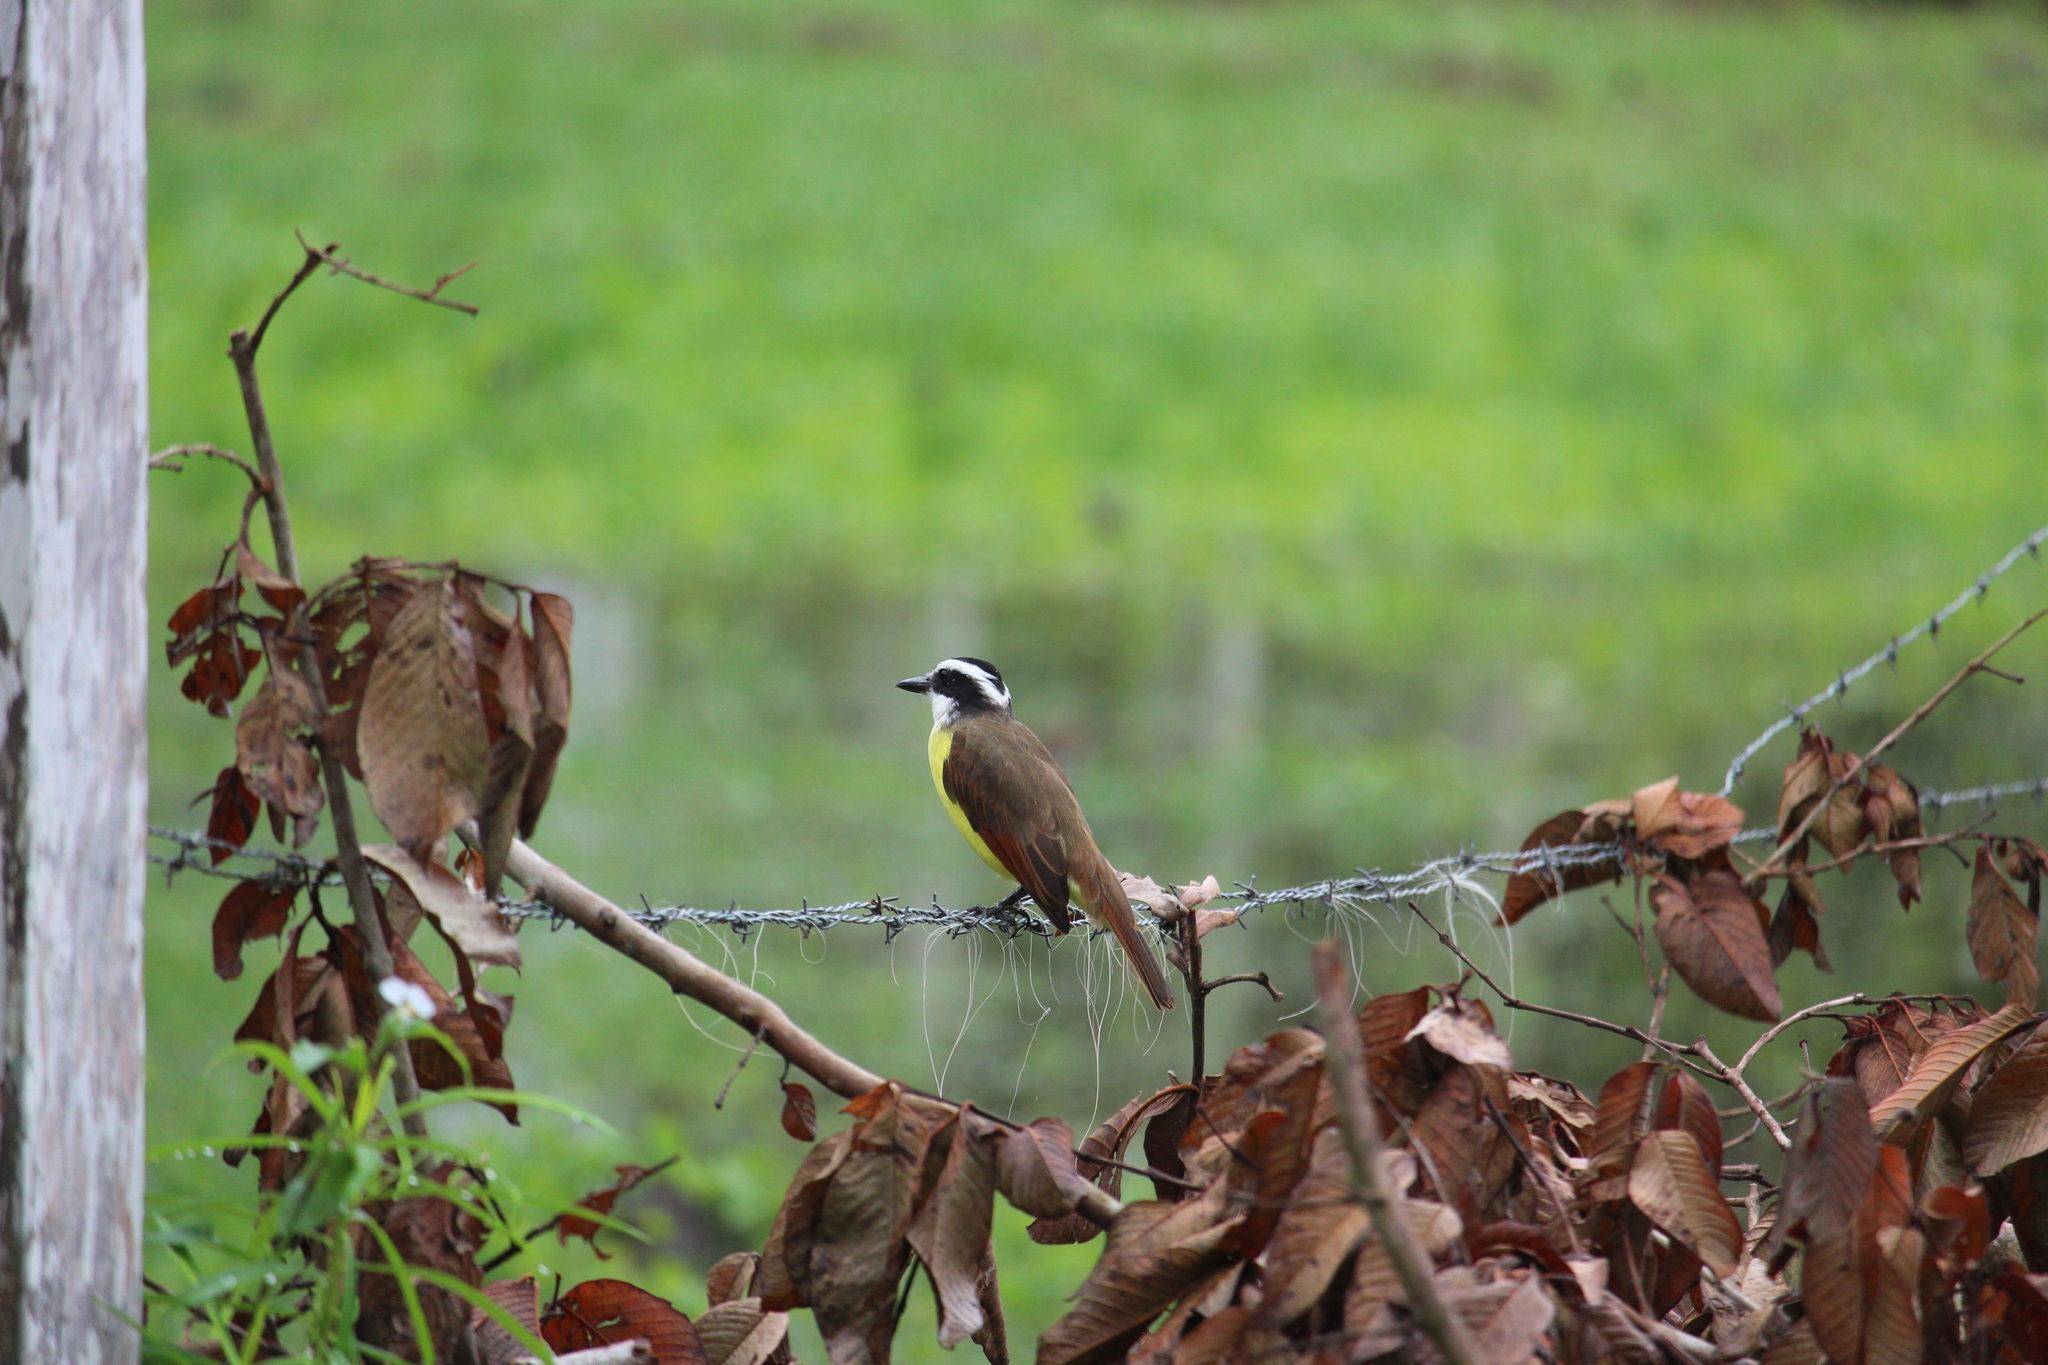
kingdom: Animalia
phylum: Chordata
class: Aves
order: Passeriformes
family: Tyrannidae
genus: Pitangus
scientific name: Pitangus sulphuratus
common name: Great kiskadee
